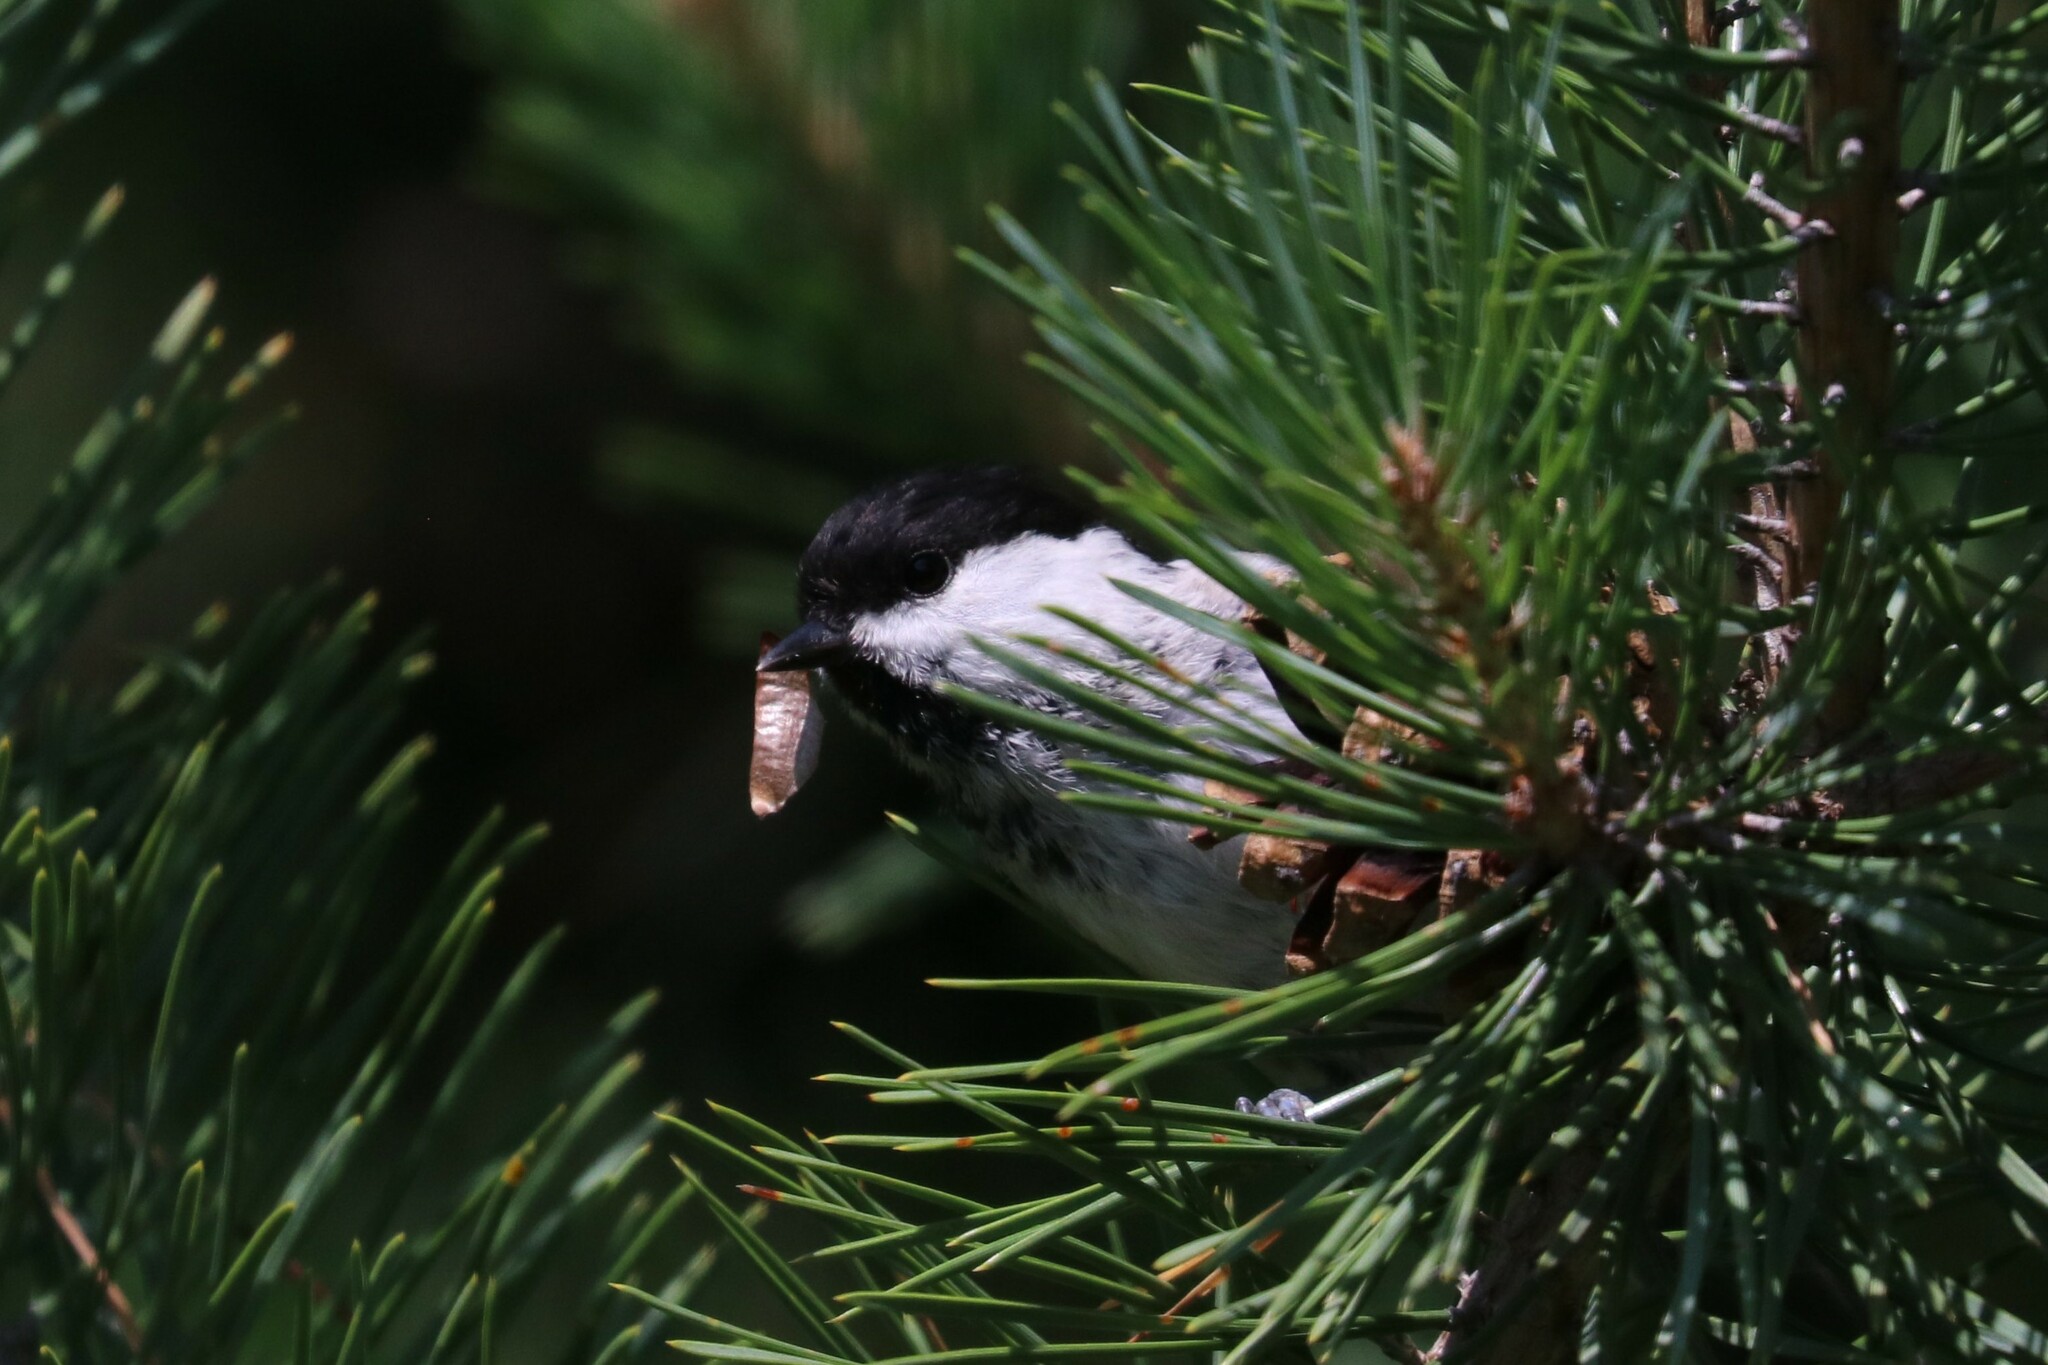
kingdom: Animalia
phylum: Chordata
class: Aves
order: Passeriformes
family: Paridae
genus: Poecile
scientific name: Poecile montanus
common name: Willow tit
